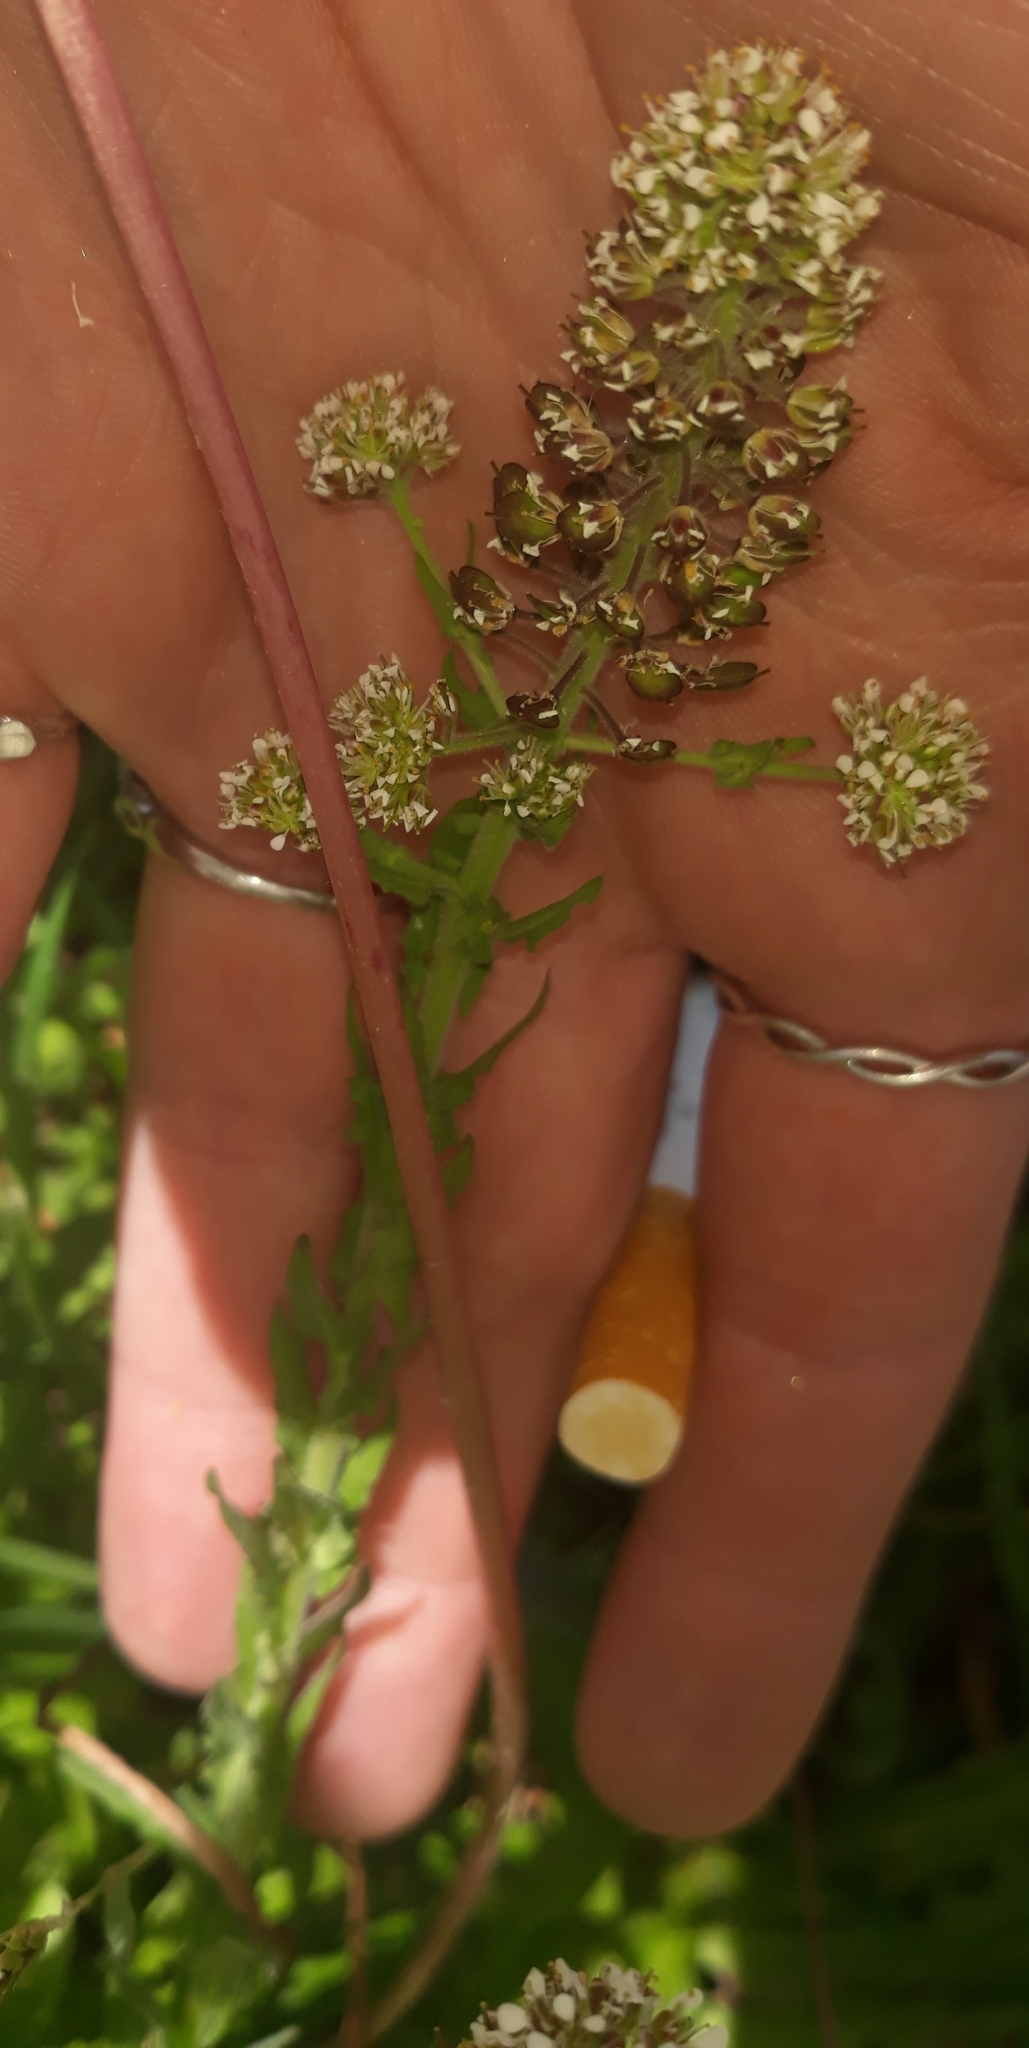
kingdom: Plantae
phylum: Tracheophyta
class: Magnoliopsida
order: Brassicales
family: Brassicaceae
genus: Lepidium
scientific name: Lepidium heterophyllum
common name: Smith's pepperwort
